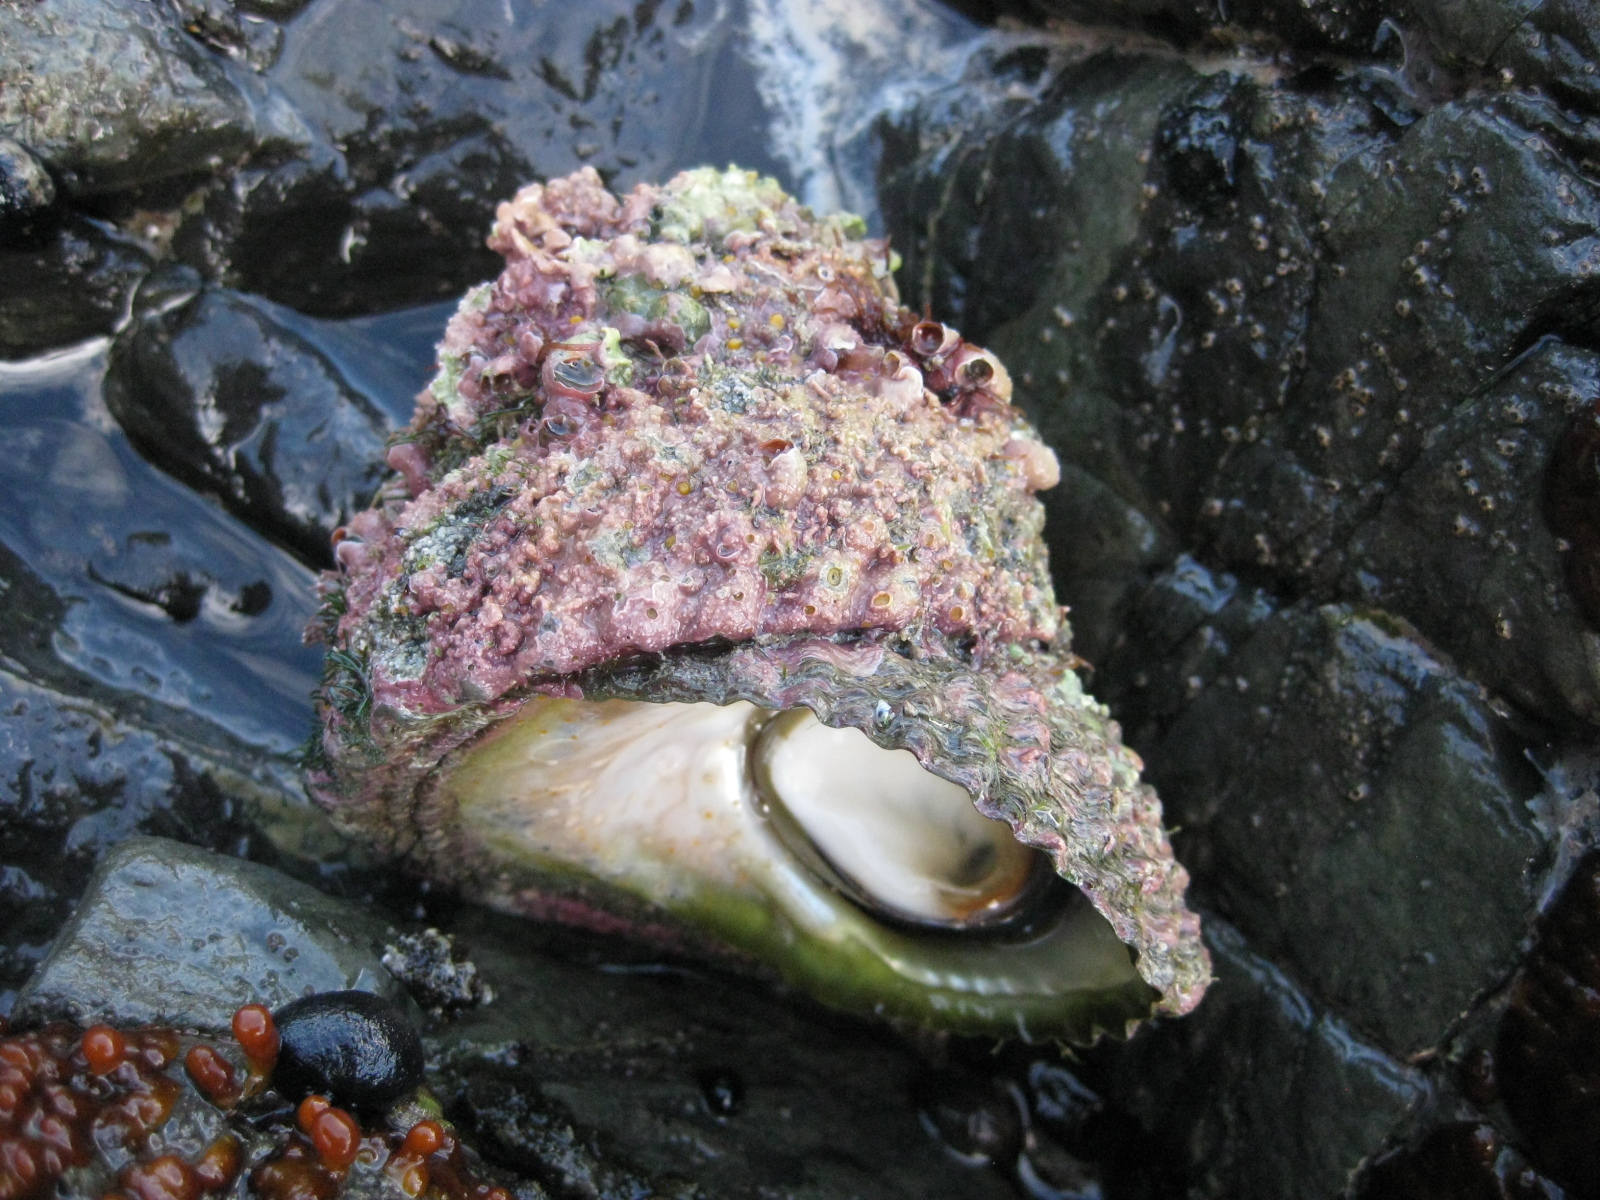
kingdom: Animalia
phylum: Mollusca
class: Gastropoda
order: Trochida
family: Turbinidae
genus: Cookia
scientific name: Cookia sulcata
